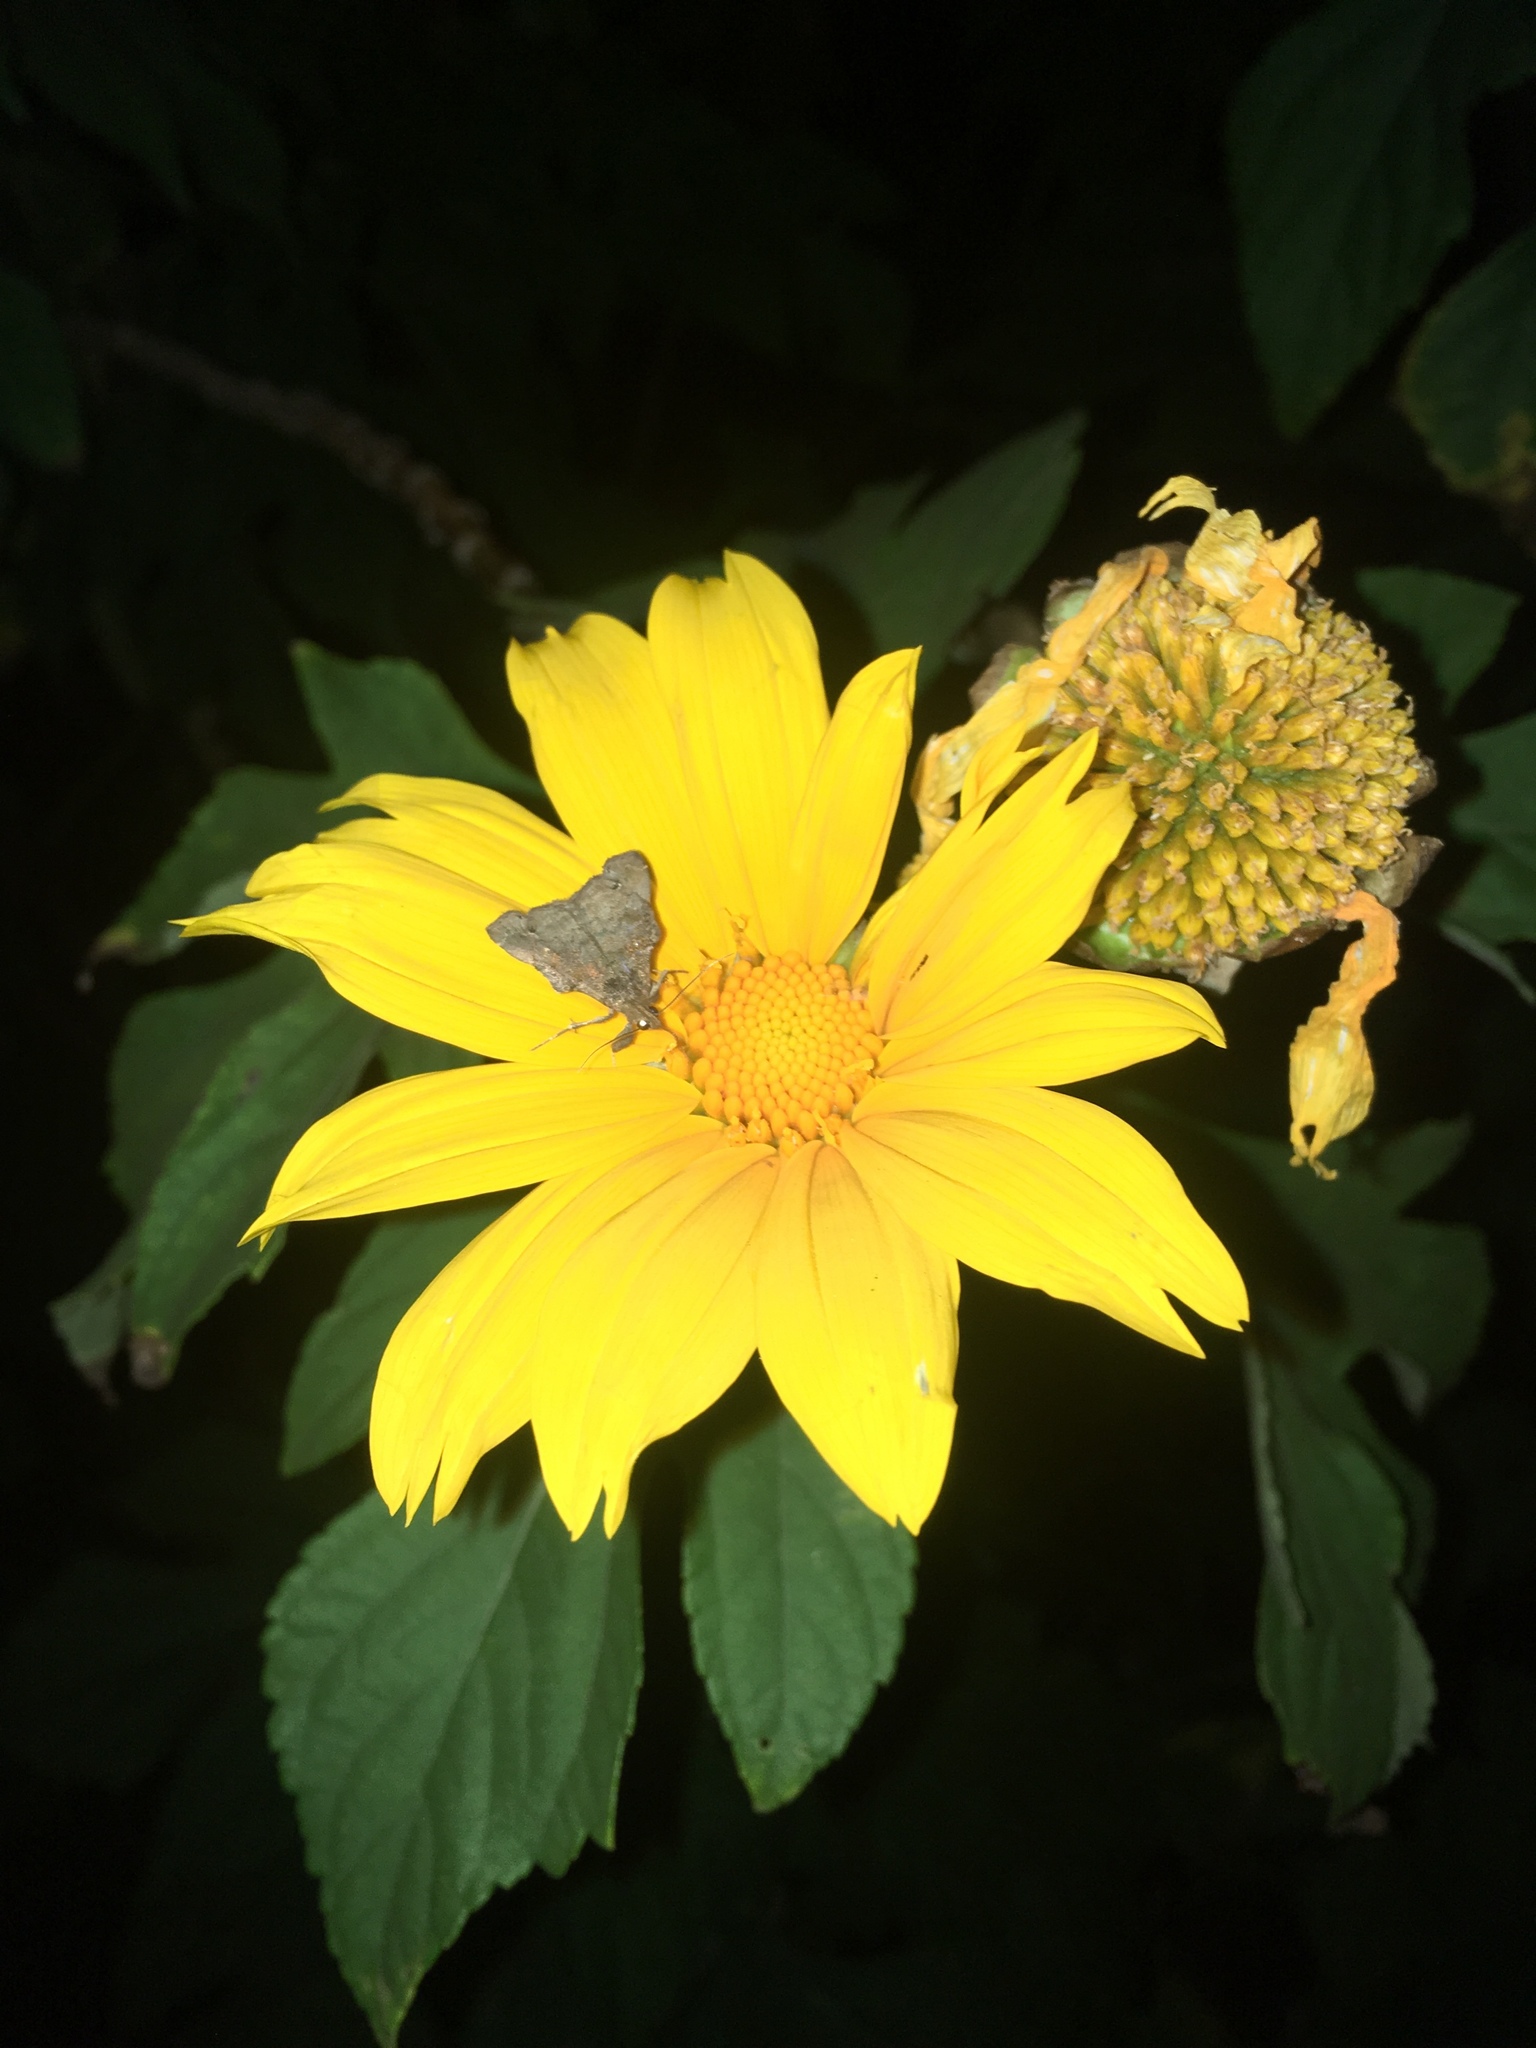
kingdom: Animalia
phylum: Arthropoda
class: Insecta
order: Lepidoptera
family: Erebidae
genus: Lascoria
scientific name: Lascoria orneodalis
